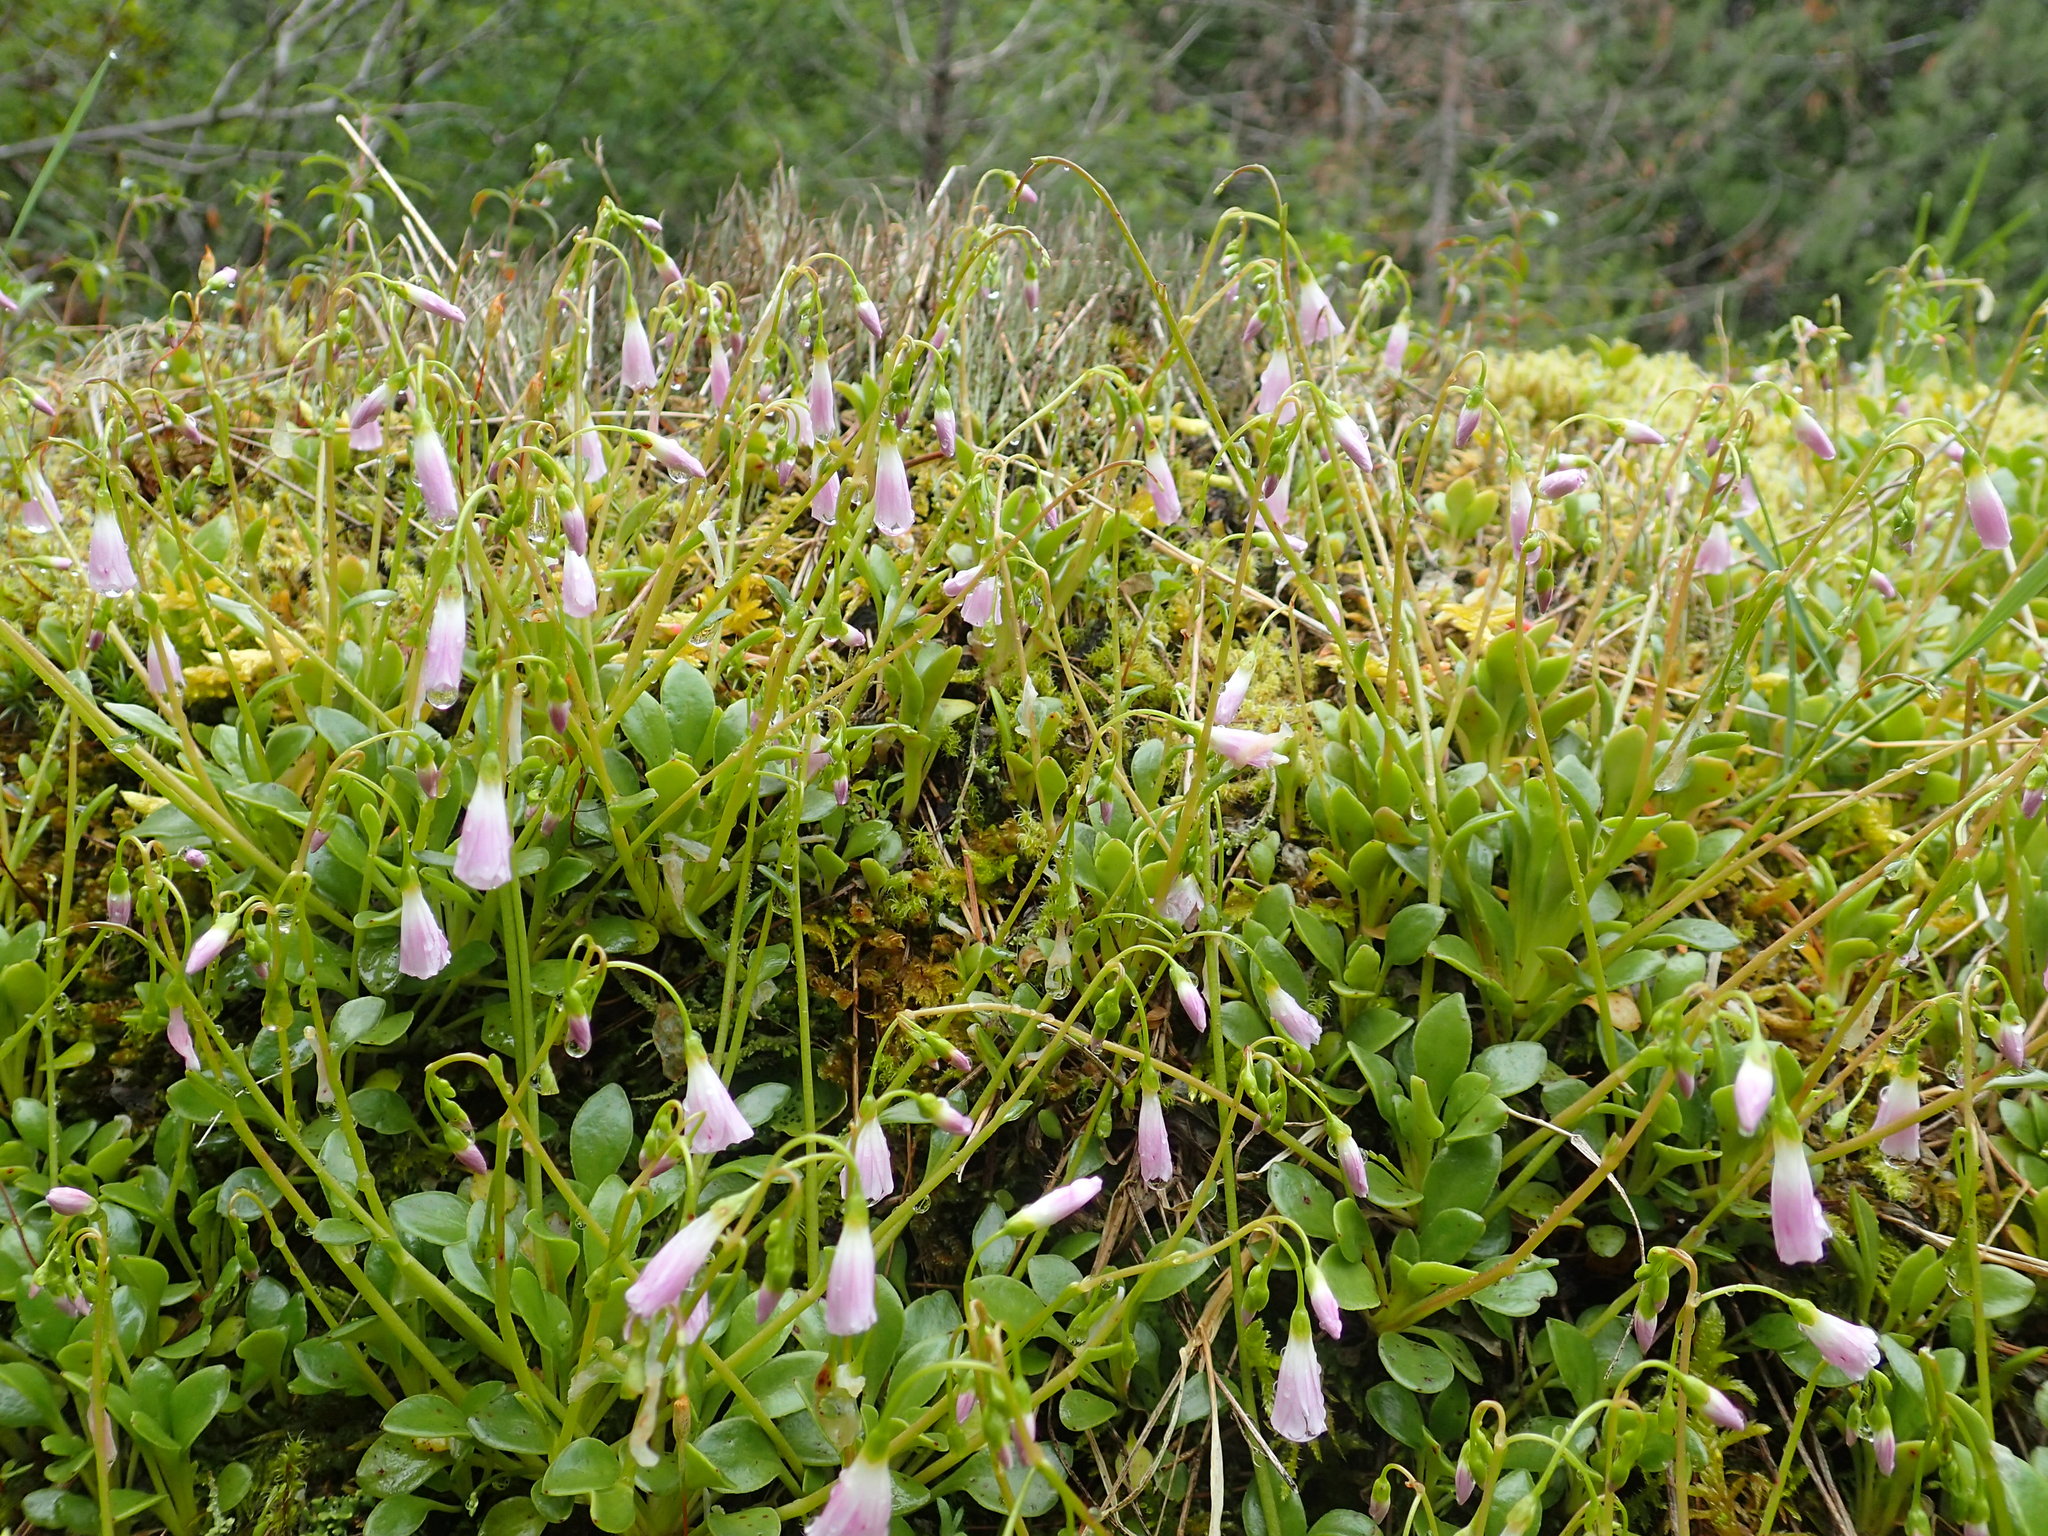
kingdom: Plantae
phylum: Tracheophyta
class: Magnoliopsida
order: Caryophyllales
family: Montiaceae
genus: Montia
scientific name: Montia parvifolia
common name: Small-leaved blinks
